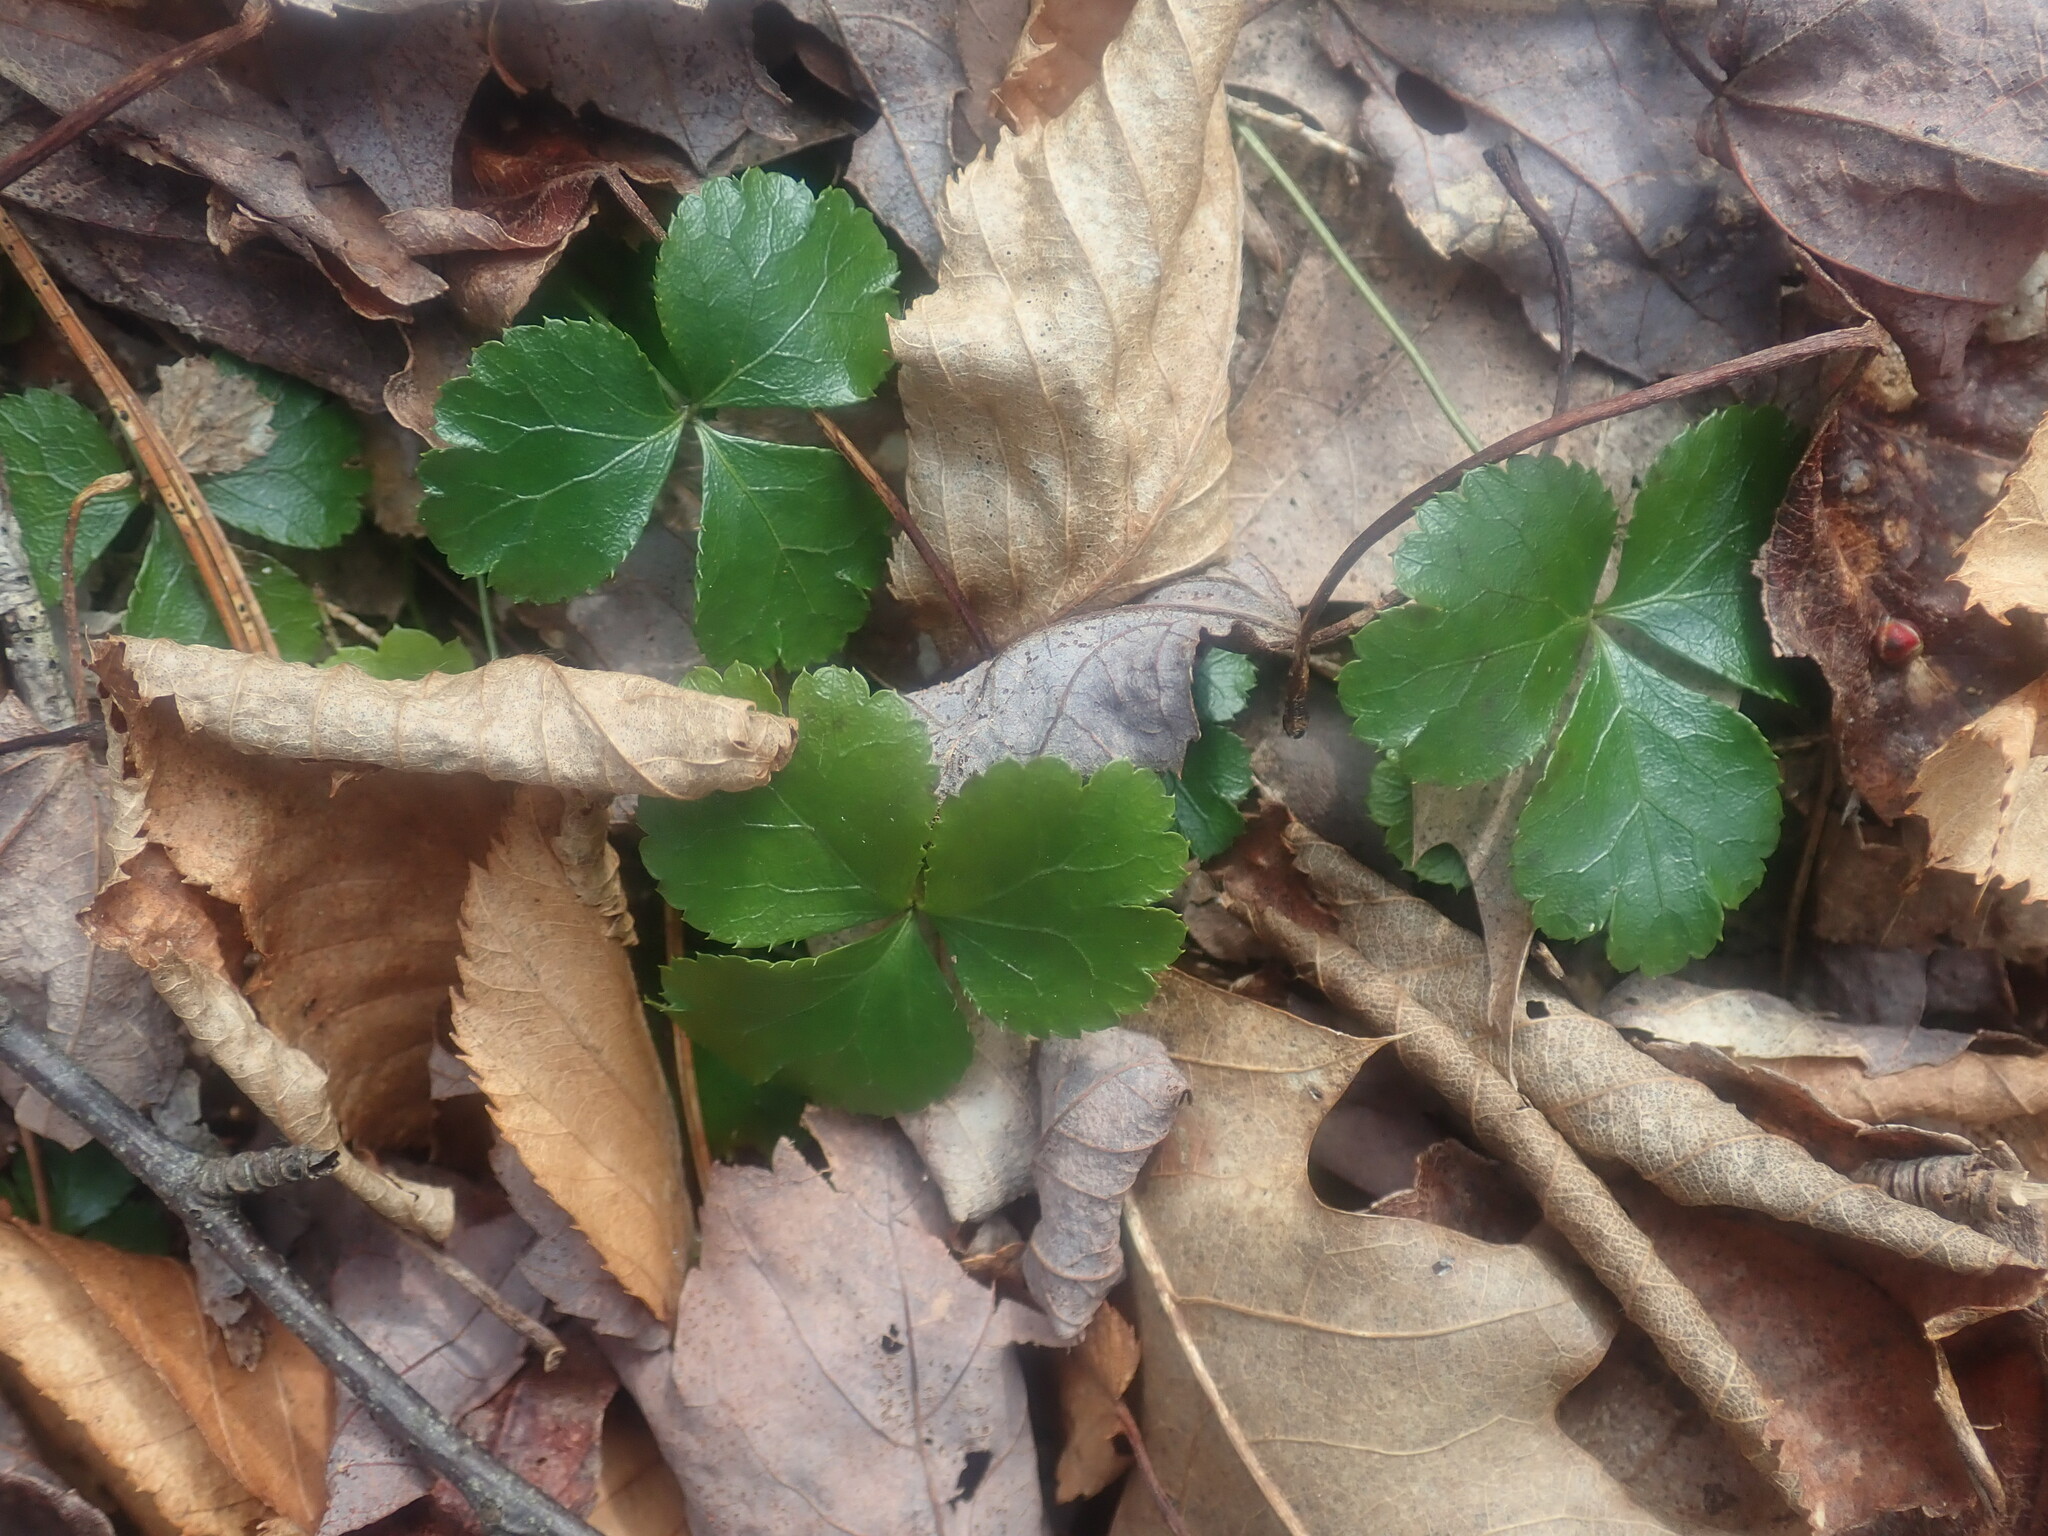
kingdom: Plantae
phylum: Tracheophyta
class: Magnoliopsida
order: Ranunculales
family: Ranunculaceae
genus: Coptis
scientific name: Coptis trifolia
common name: Canker-root
